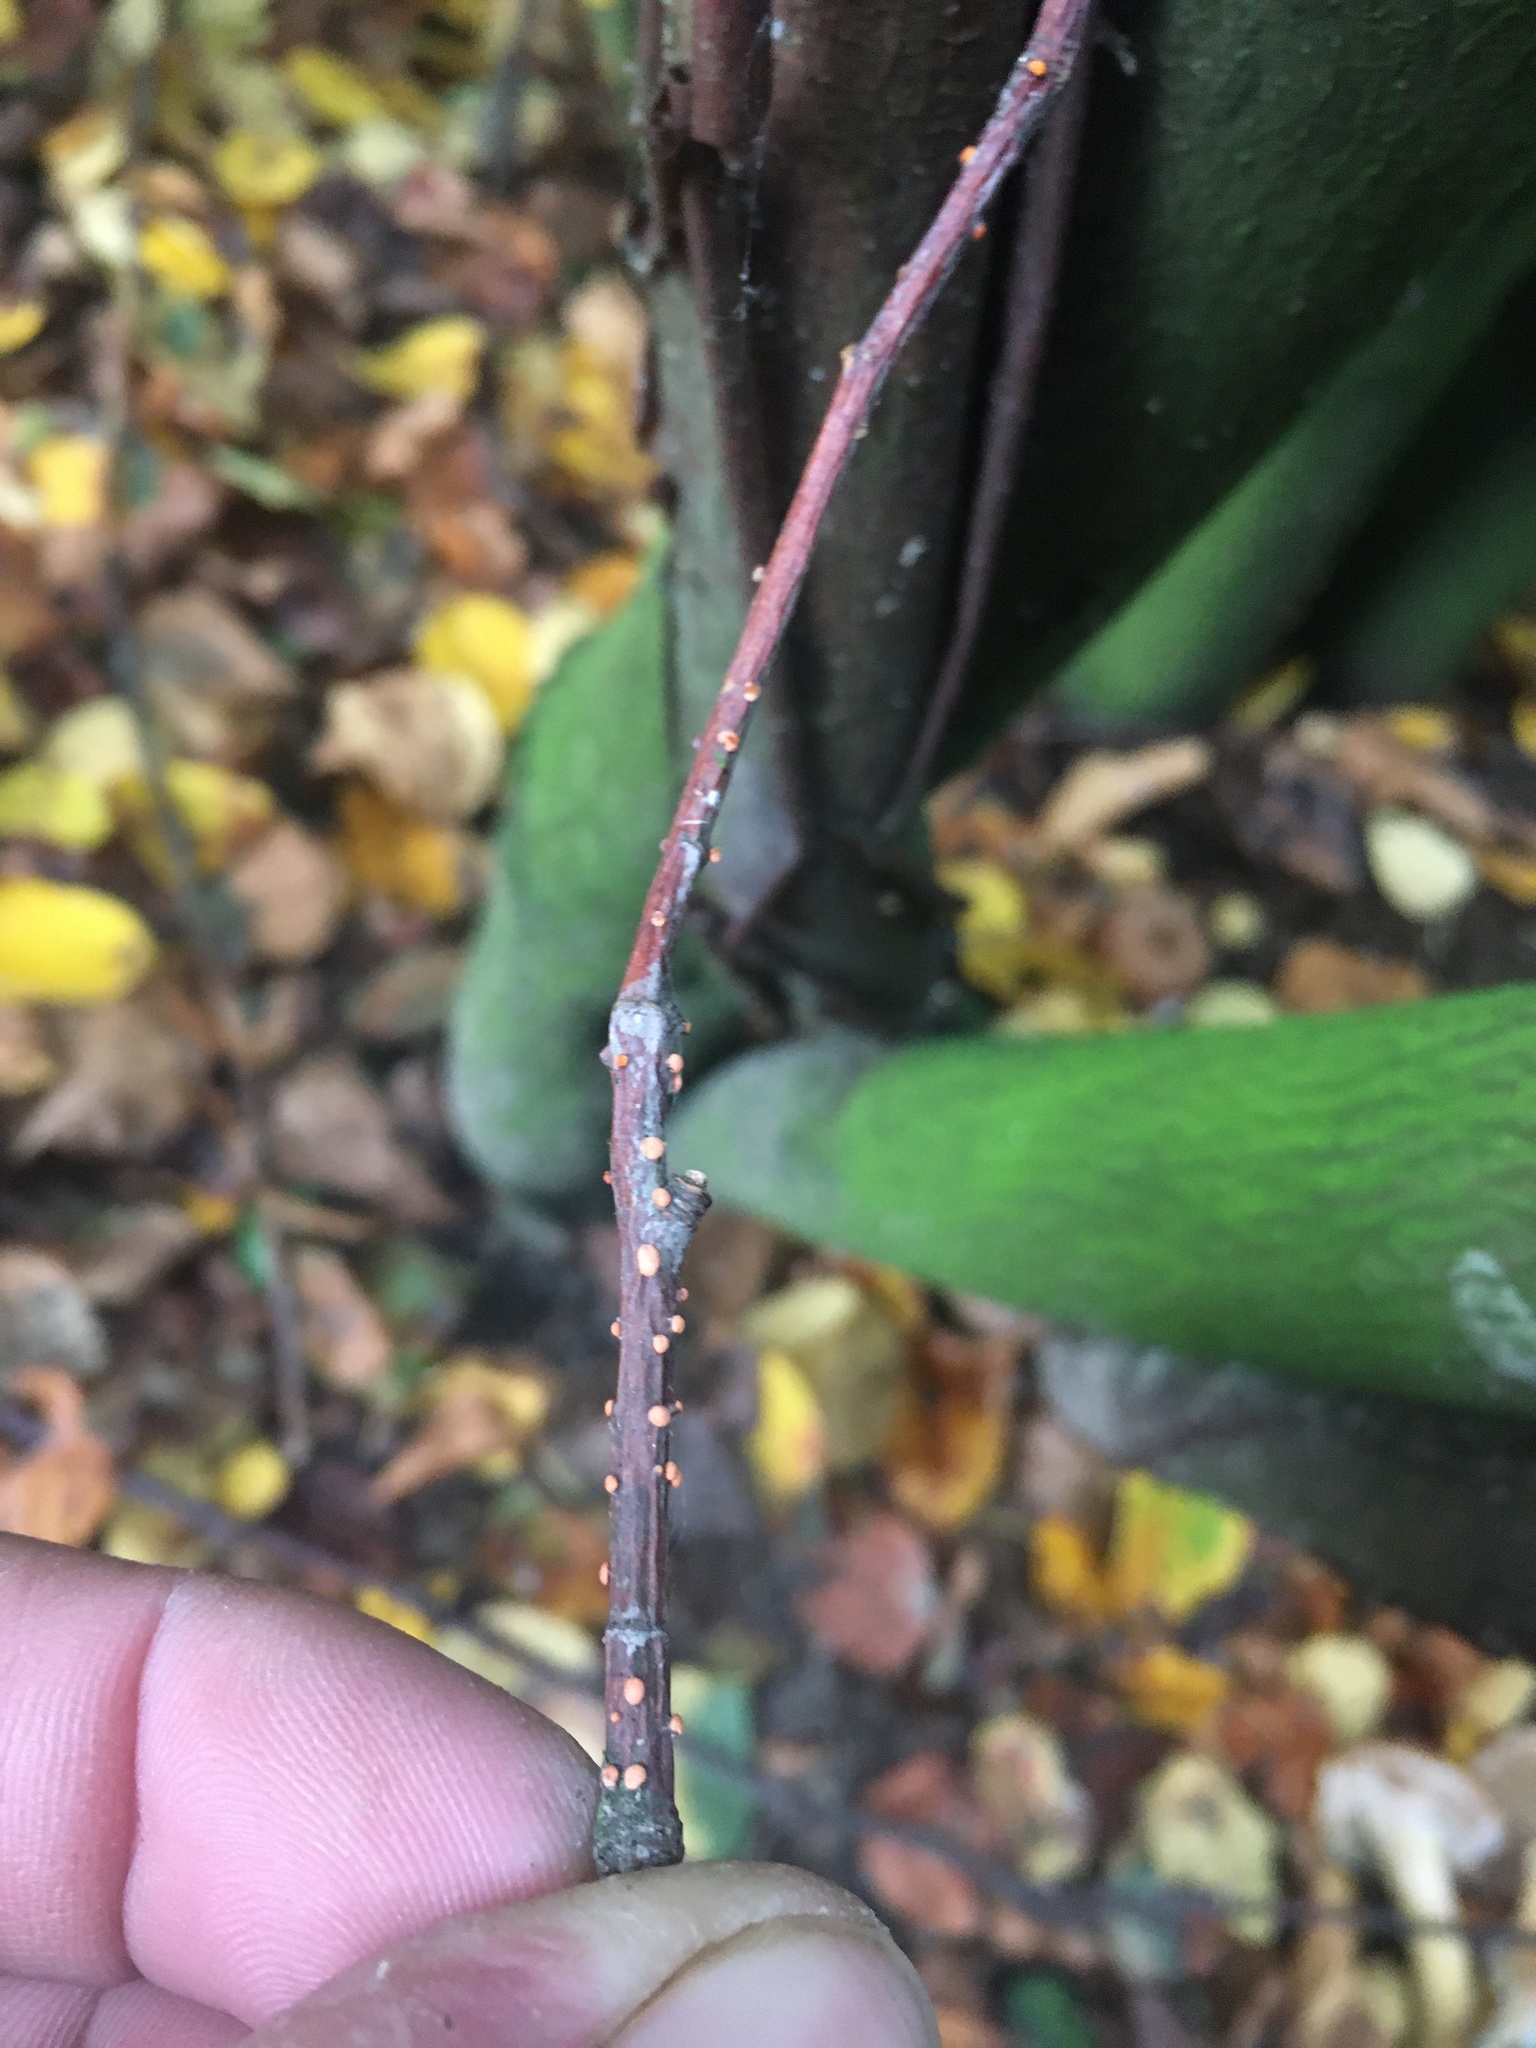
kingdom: Fungi
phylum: Ascomycota
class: Sordariomycetes
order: Hypocreales
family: Nectriaceae
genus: Nectria
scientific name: Nectria cinnabarina
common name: Coral spot
